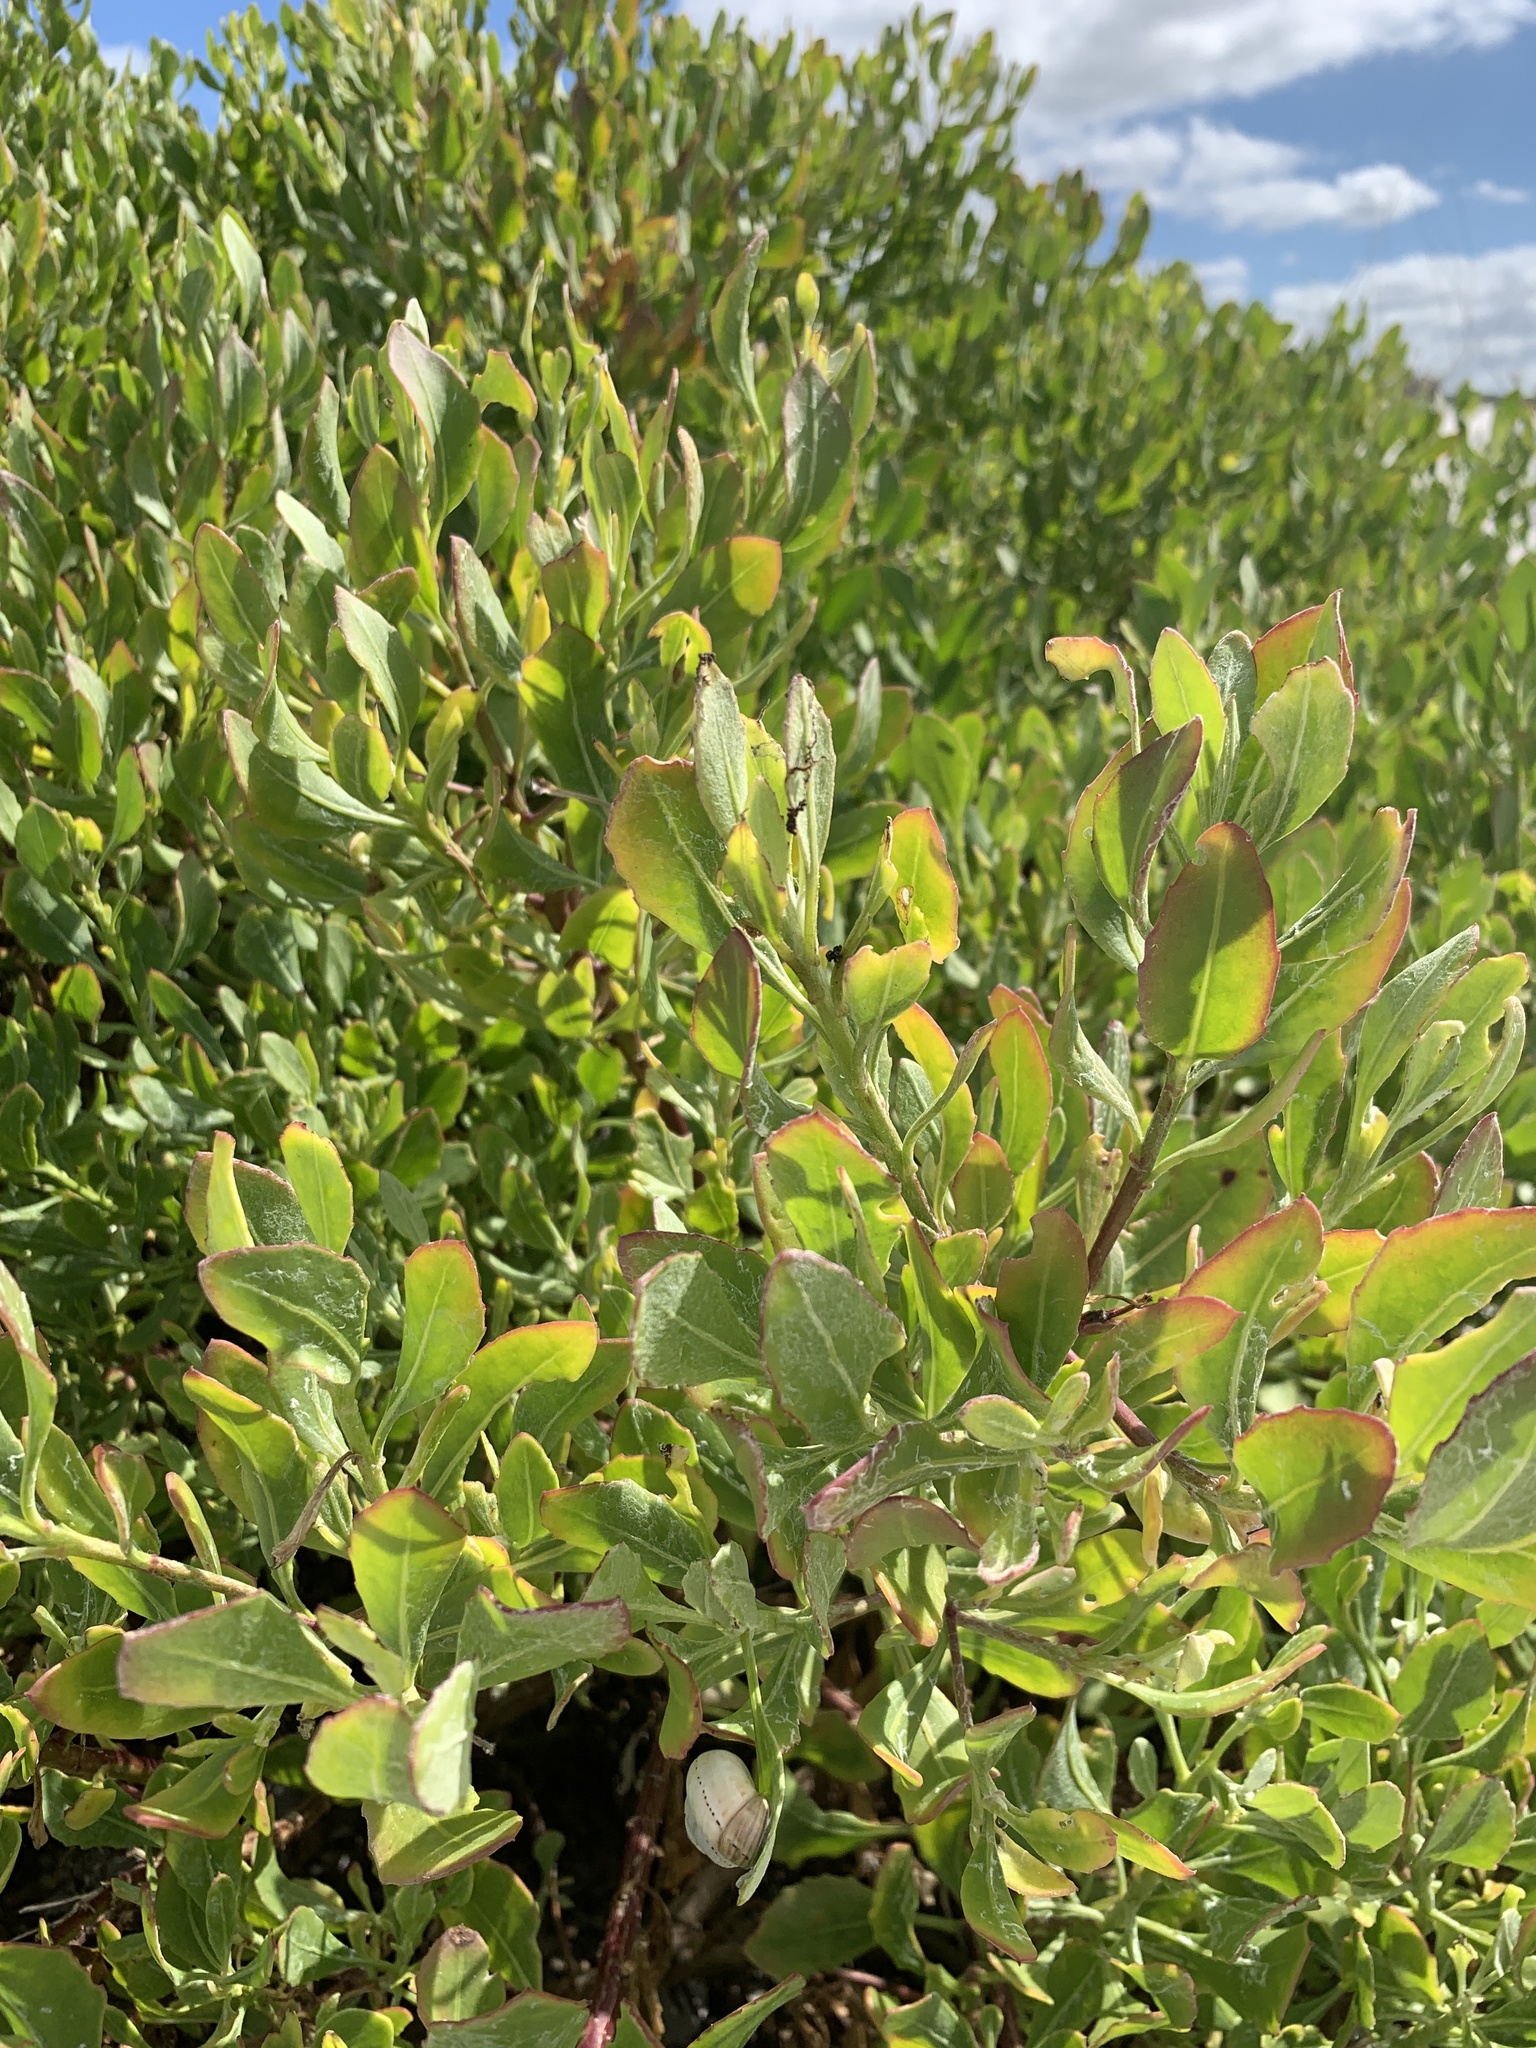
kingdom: Plantae
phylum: Tracheophyta
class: Magnoliopsida
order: Asterales
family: Asteraceae
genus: Osteospermum
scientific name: Osteospermum moniliferum
